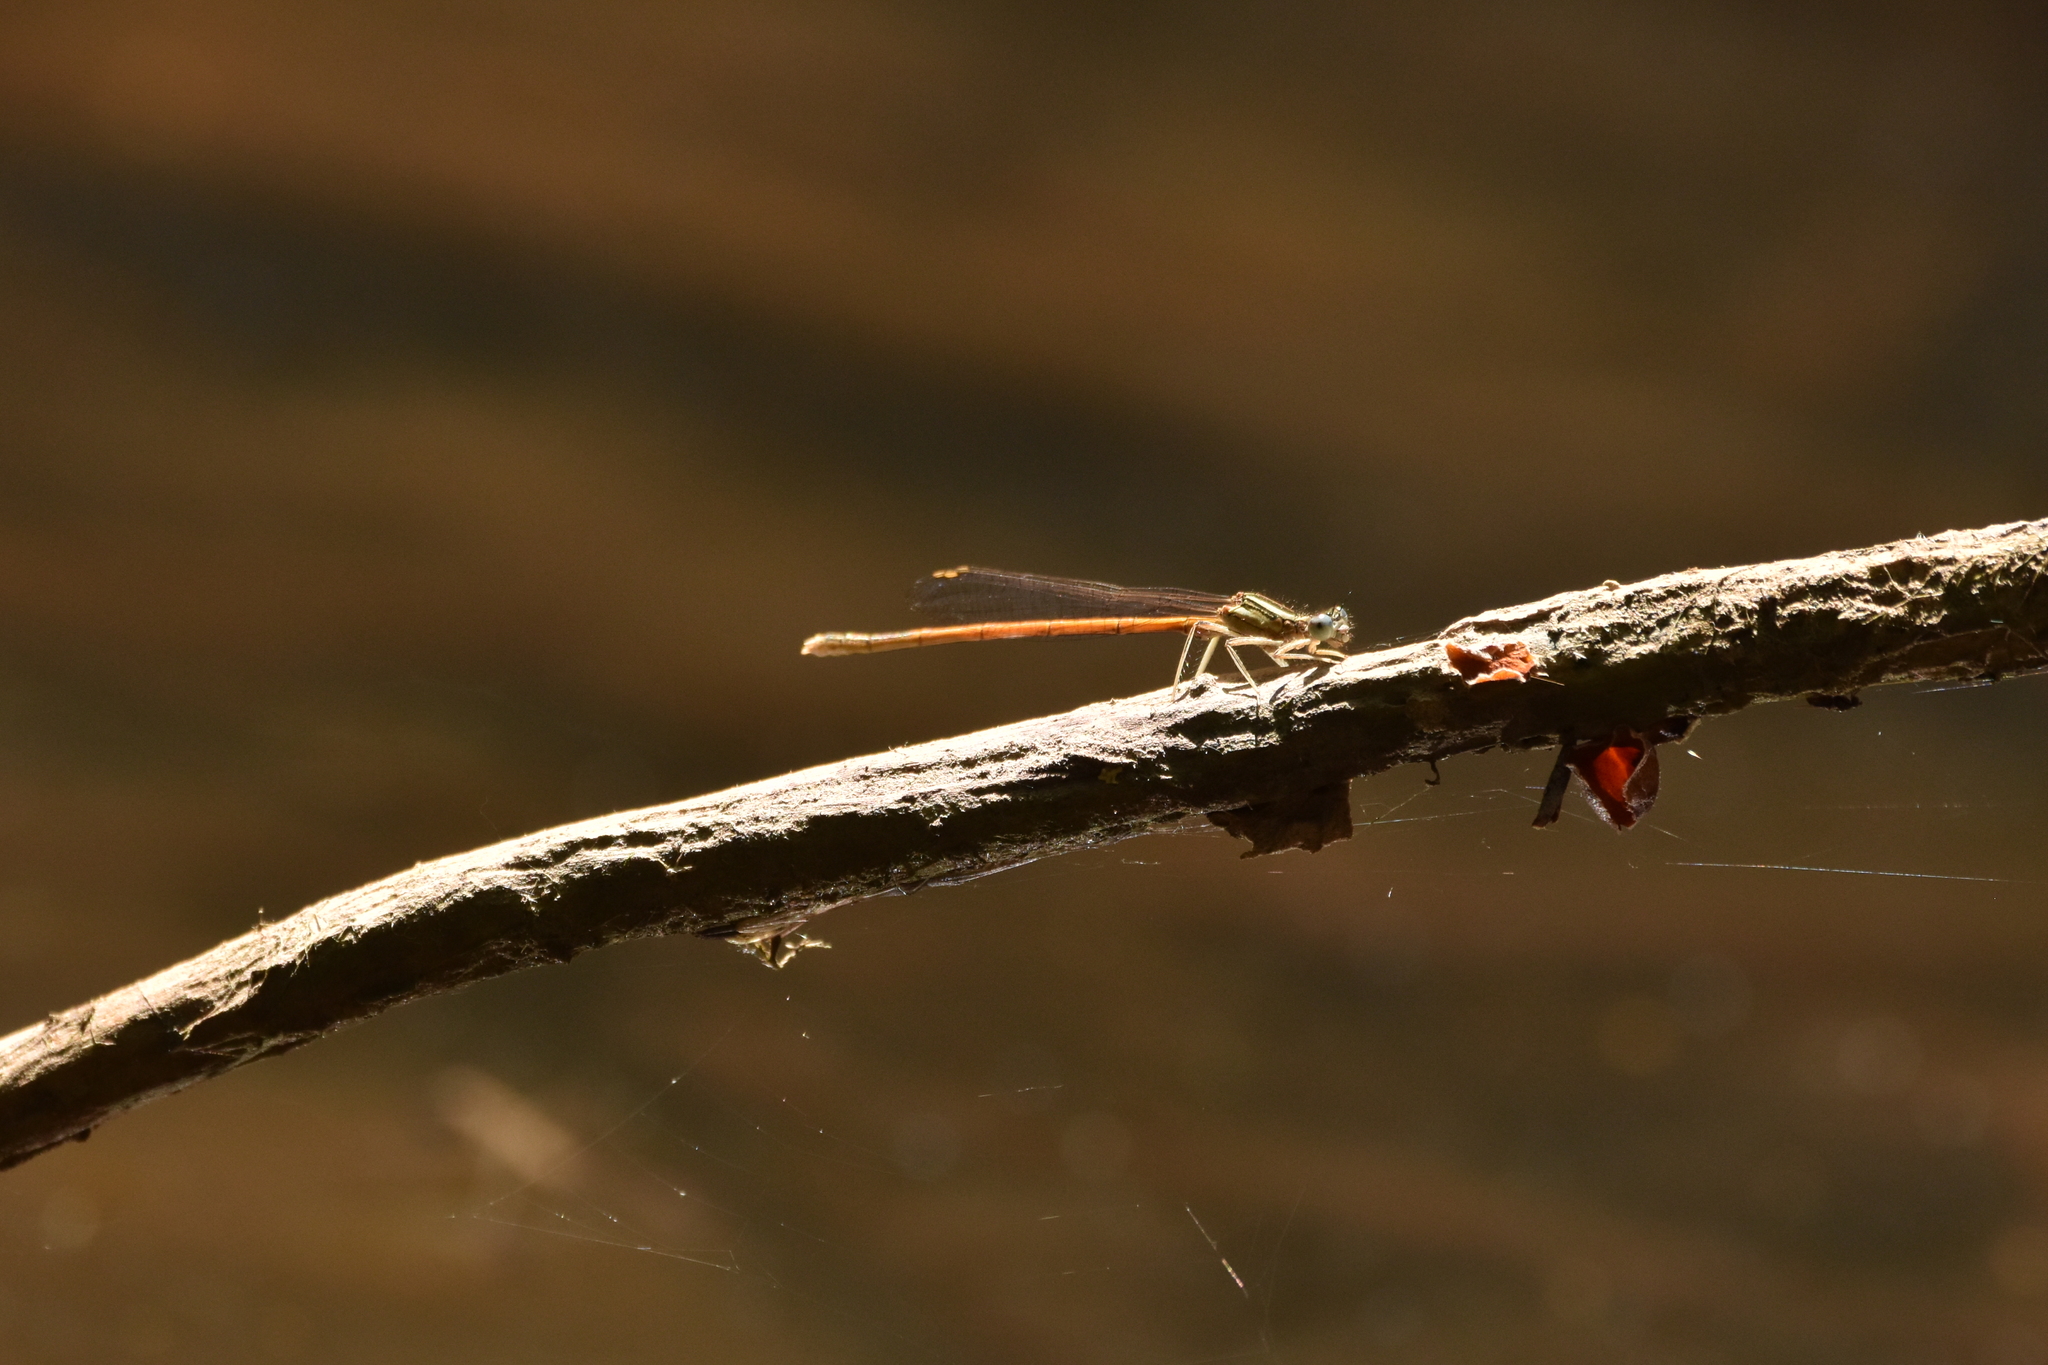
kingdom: Animalia
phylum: Arthropoda
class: Insecta
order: Odonata
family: Platycnemididae
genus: Platycnemis
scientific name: Platycnemis acutipennis
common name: Orange featherleg
